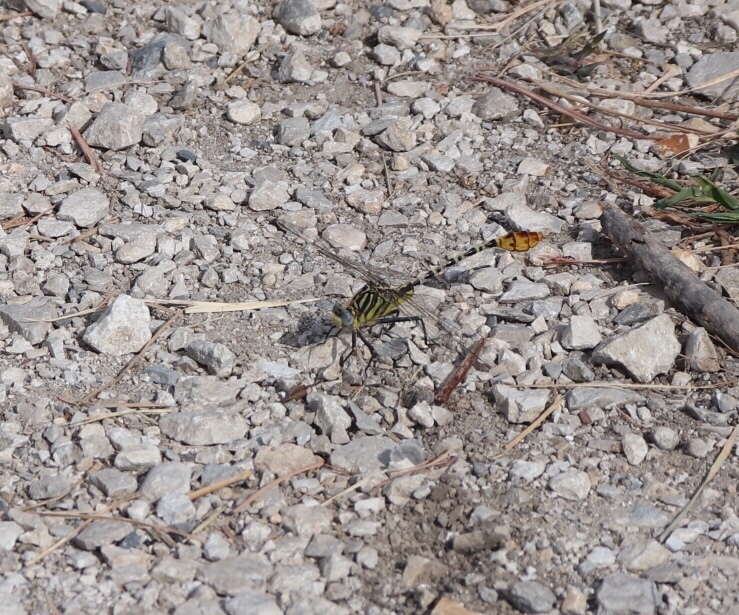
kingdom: Animalia
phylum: Arthropoda
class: Insecta
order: Odonata
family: Gomphidae
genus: Dromogomphus
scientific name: Dromogomphus spoliatus
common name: Flag-tailed spinyleg
